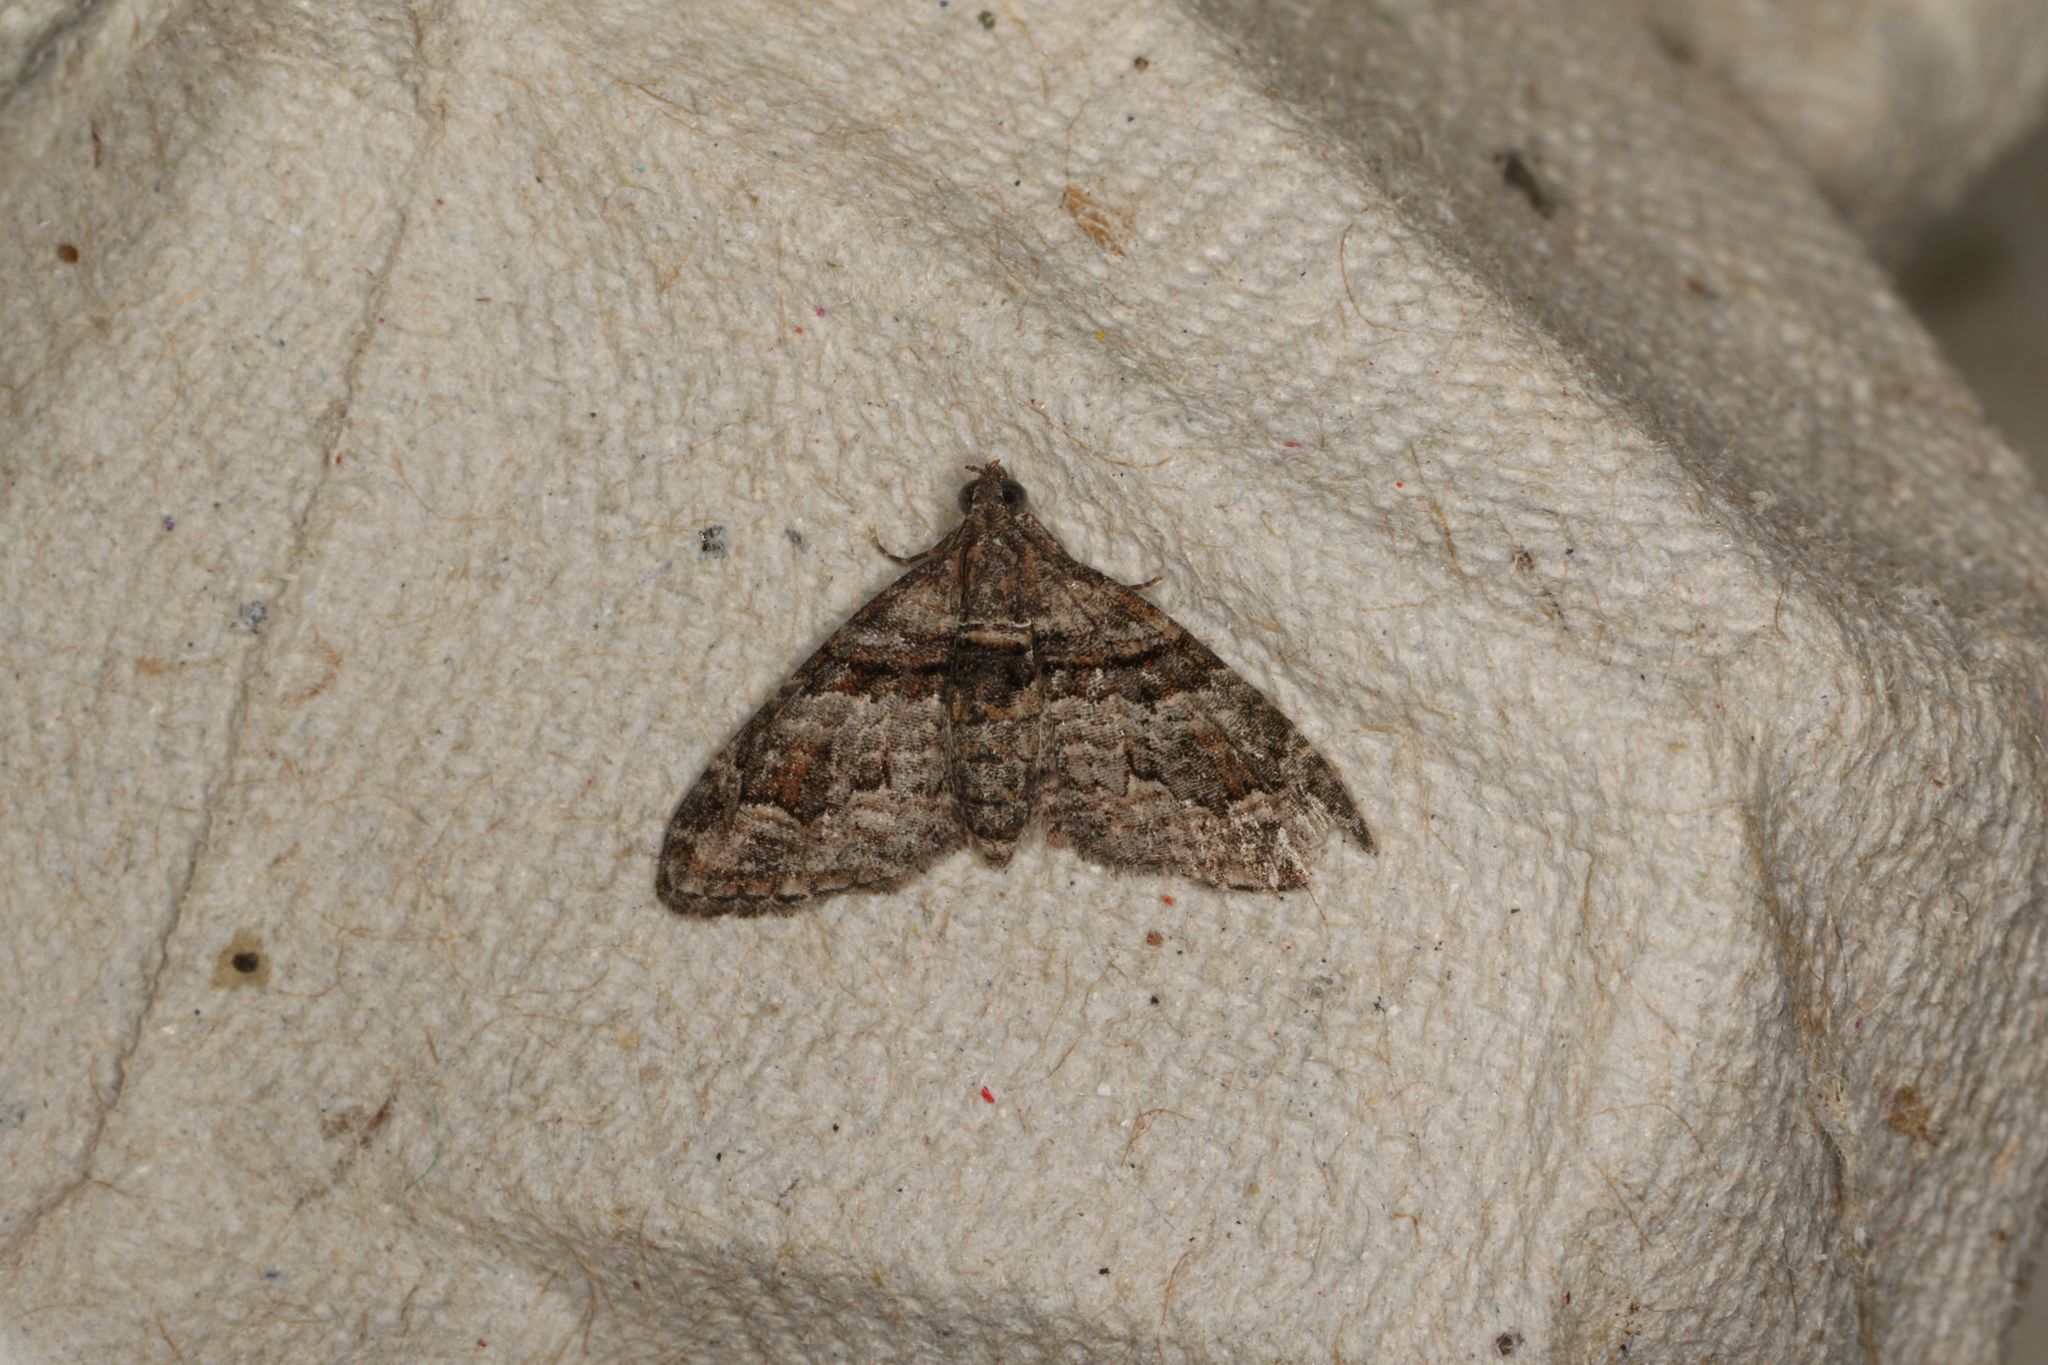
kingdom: Animalia
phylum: Arthropoda
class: Insecta
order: Lepidoptera
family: Geometridae
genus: Phrissogonus
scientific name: Phrissogonus laticostata
